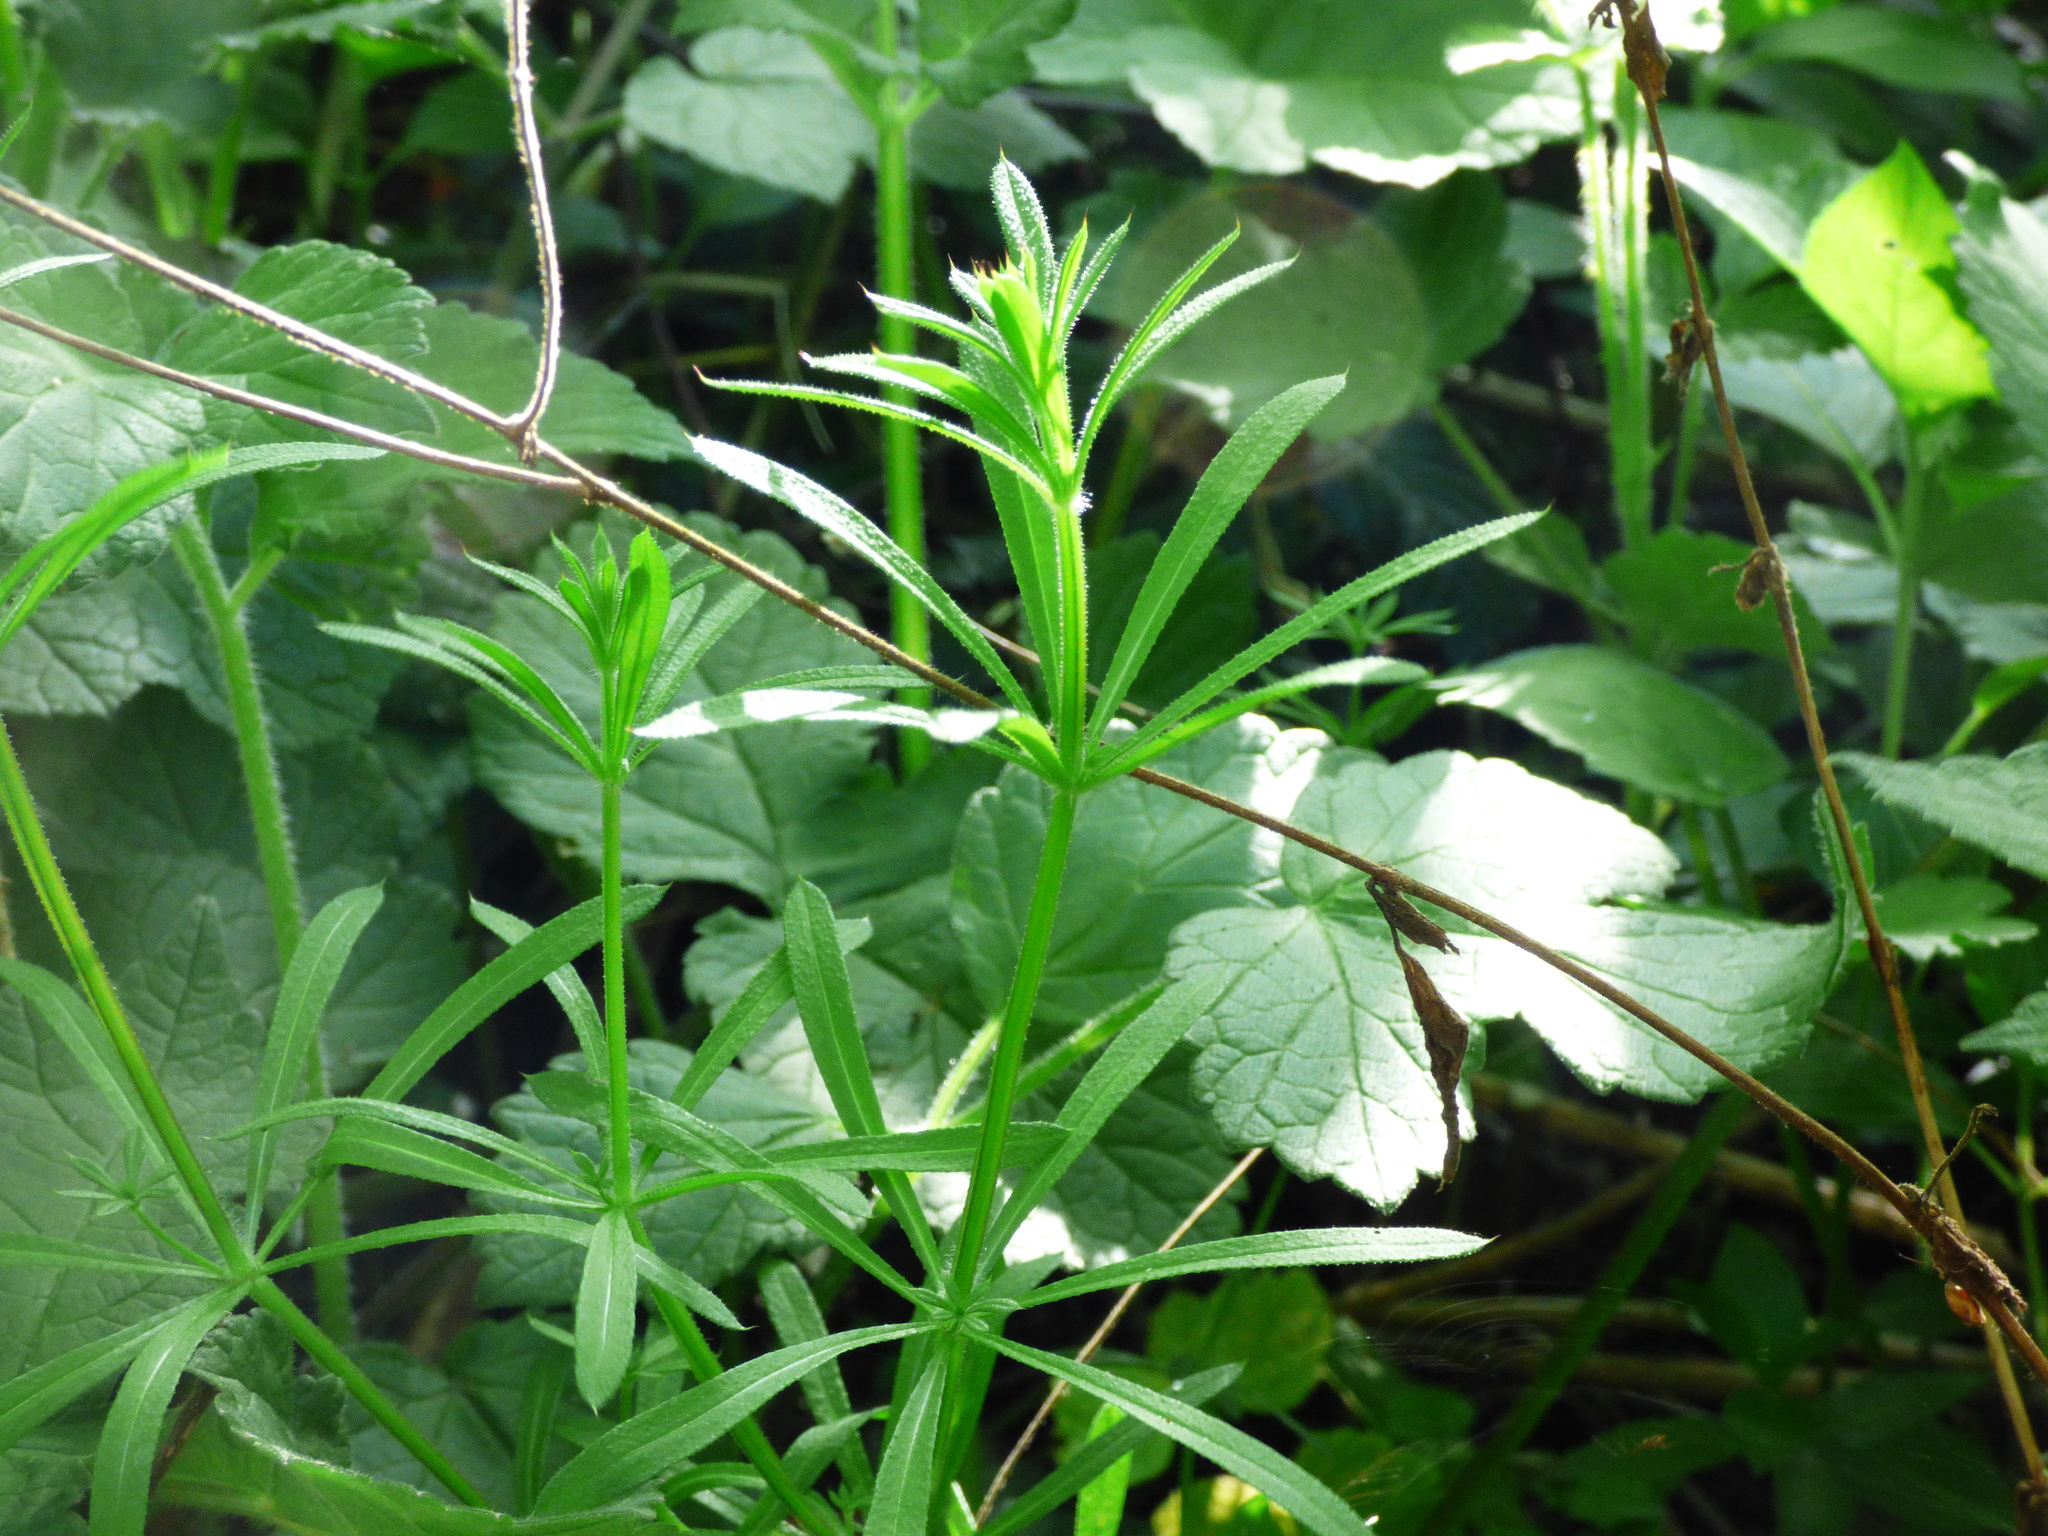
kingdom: Plantae
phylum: Tracheophyta
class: Magnoliopsida
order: Gentianales
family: Rubiaceae
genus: Galium
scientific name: Galium aparine
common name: Cleavers
